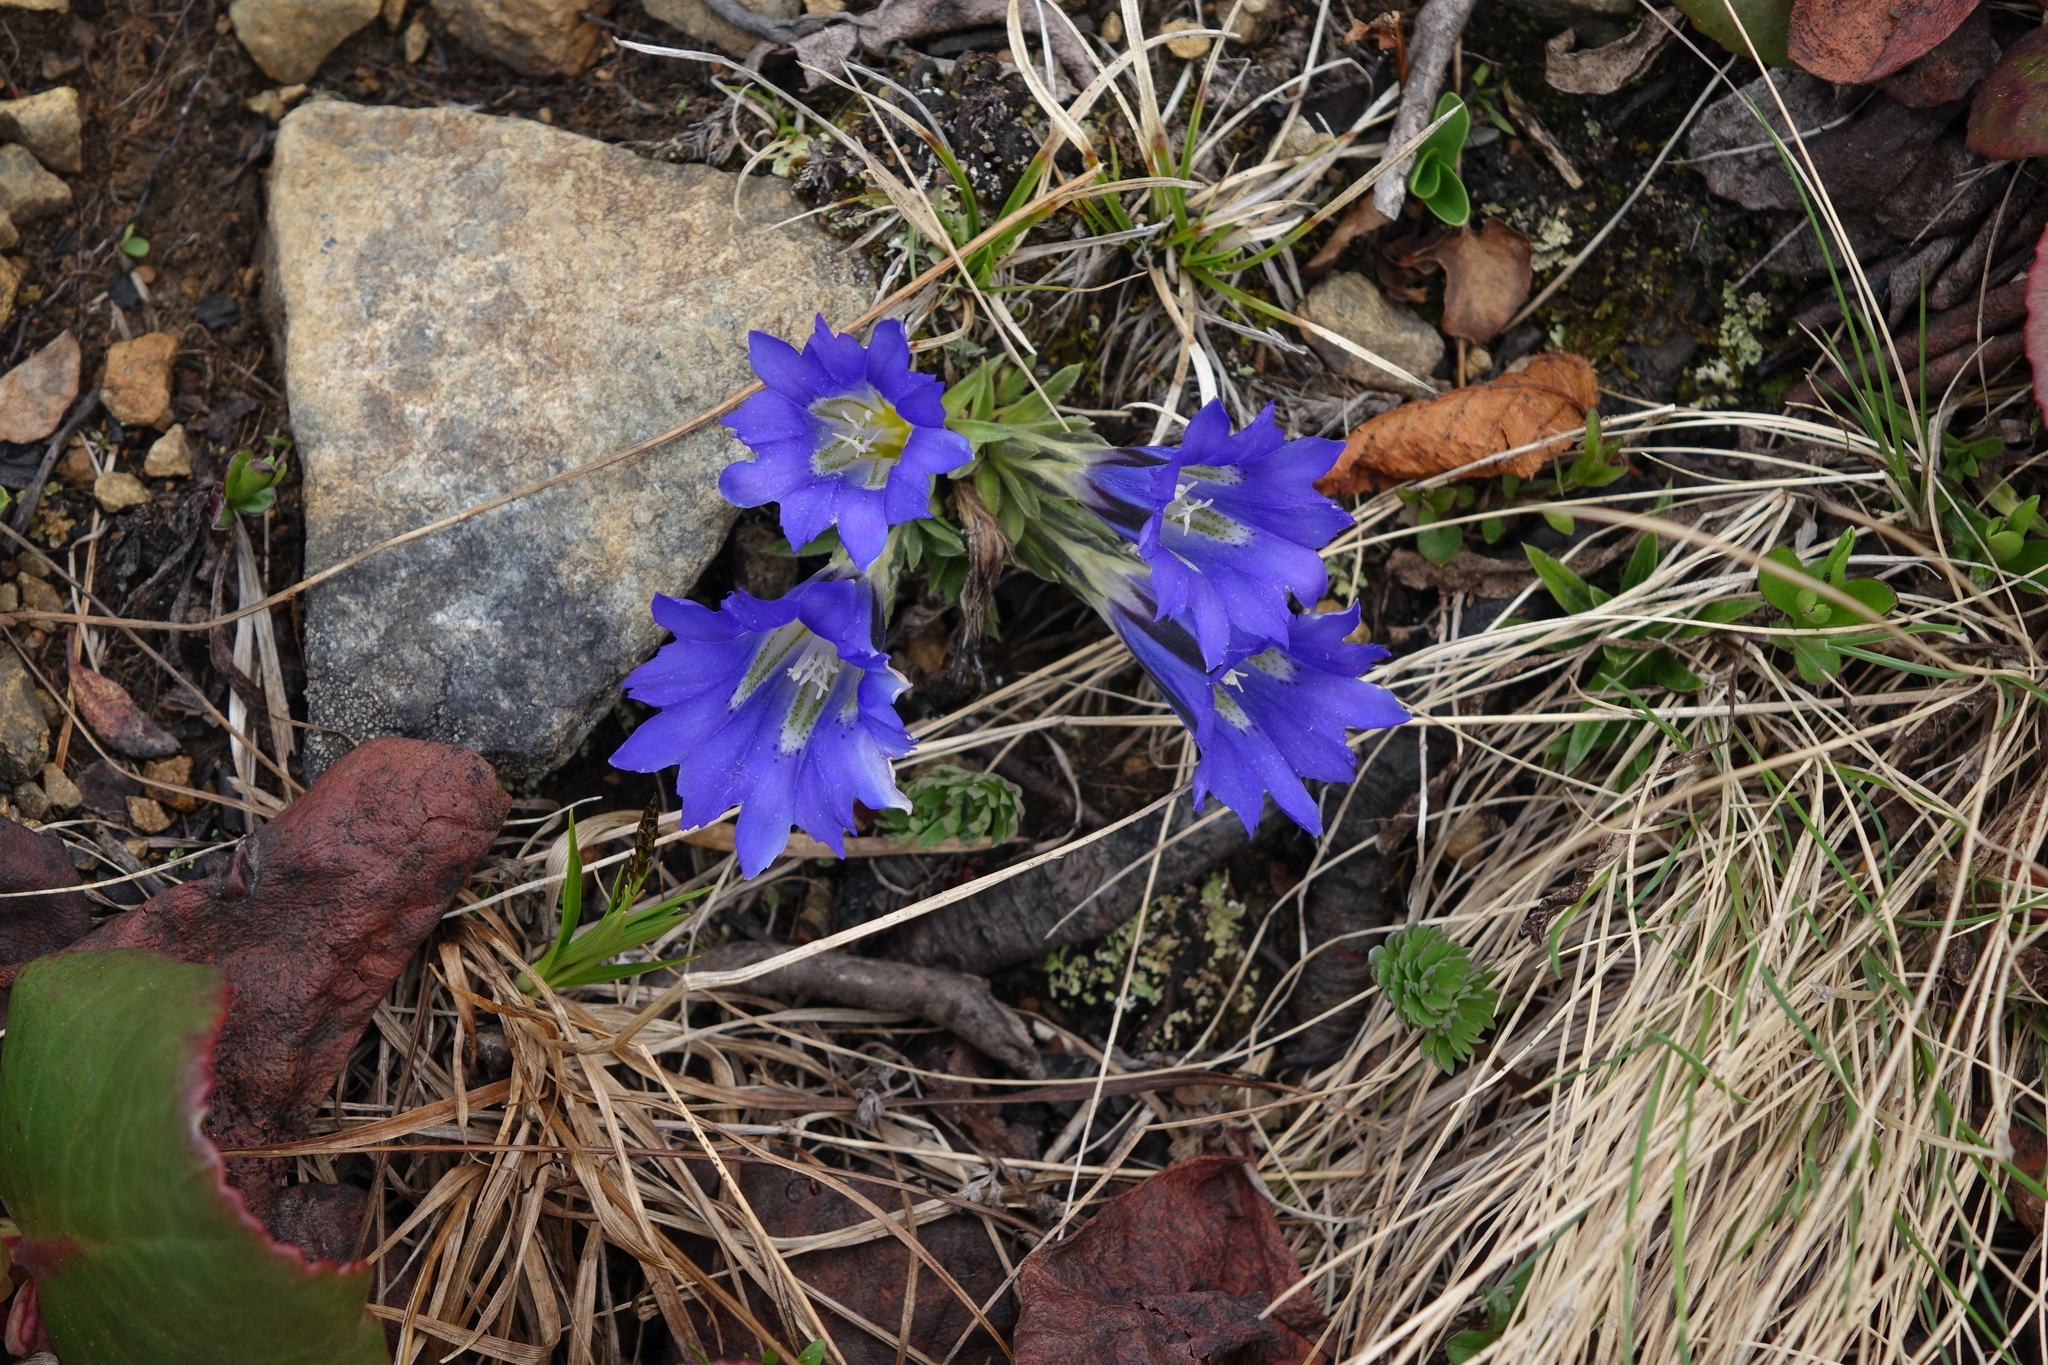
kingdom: Plantae
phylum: Tracheophyta
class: Magnoliopsida
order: Gentianales
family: Gentianaceae
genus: Gentiana
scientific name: Gentiana grandiflora
